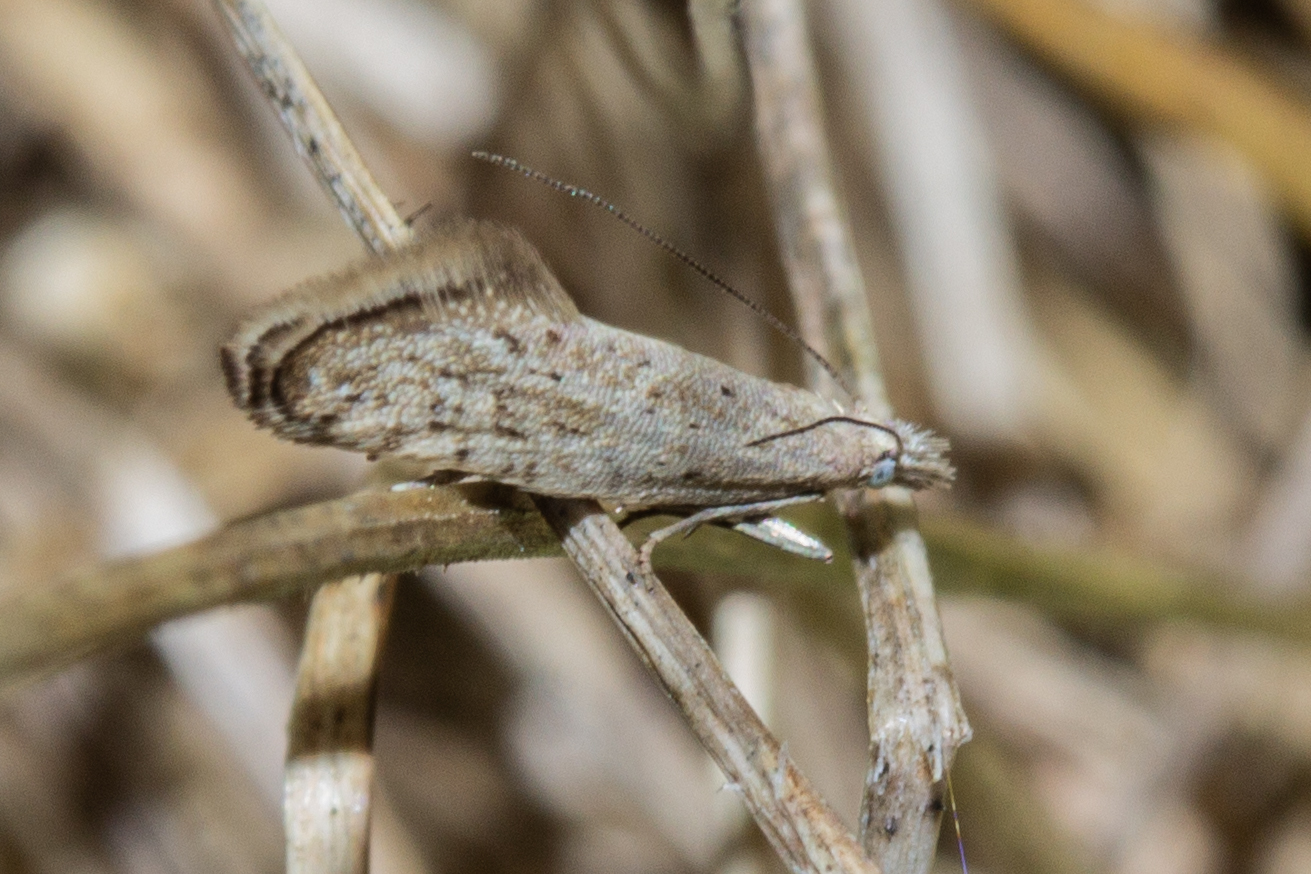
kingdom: Animalia
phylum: Arthropoda
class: Insecta
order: Lepidoptera
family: Glyphipterigidae
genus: Glyphipterix
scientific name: Glyphipterix achlyoessa
